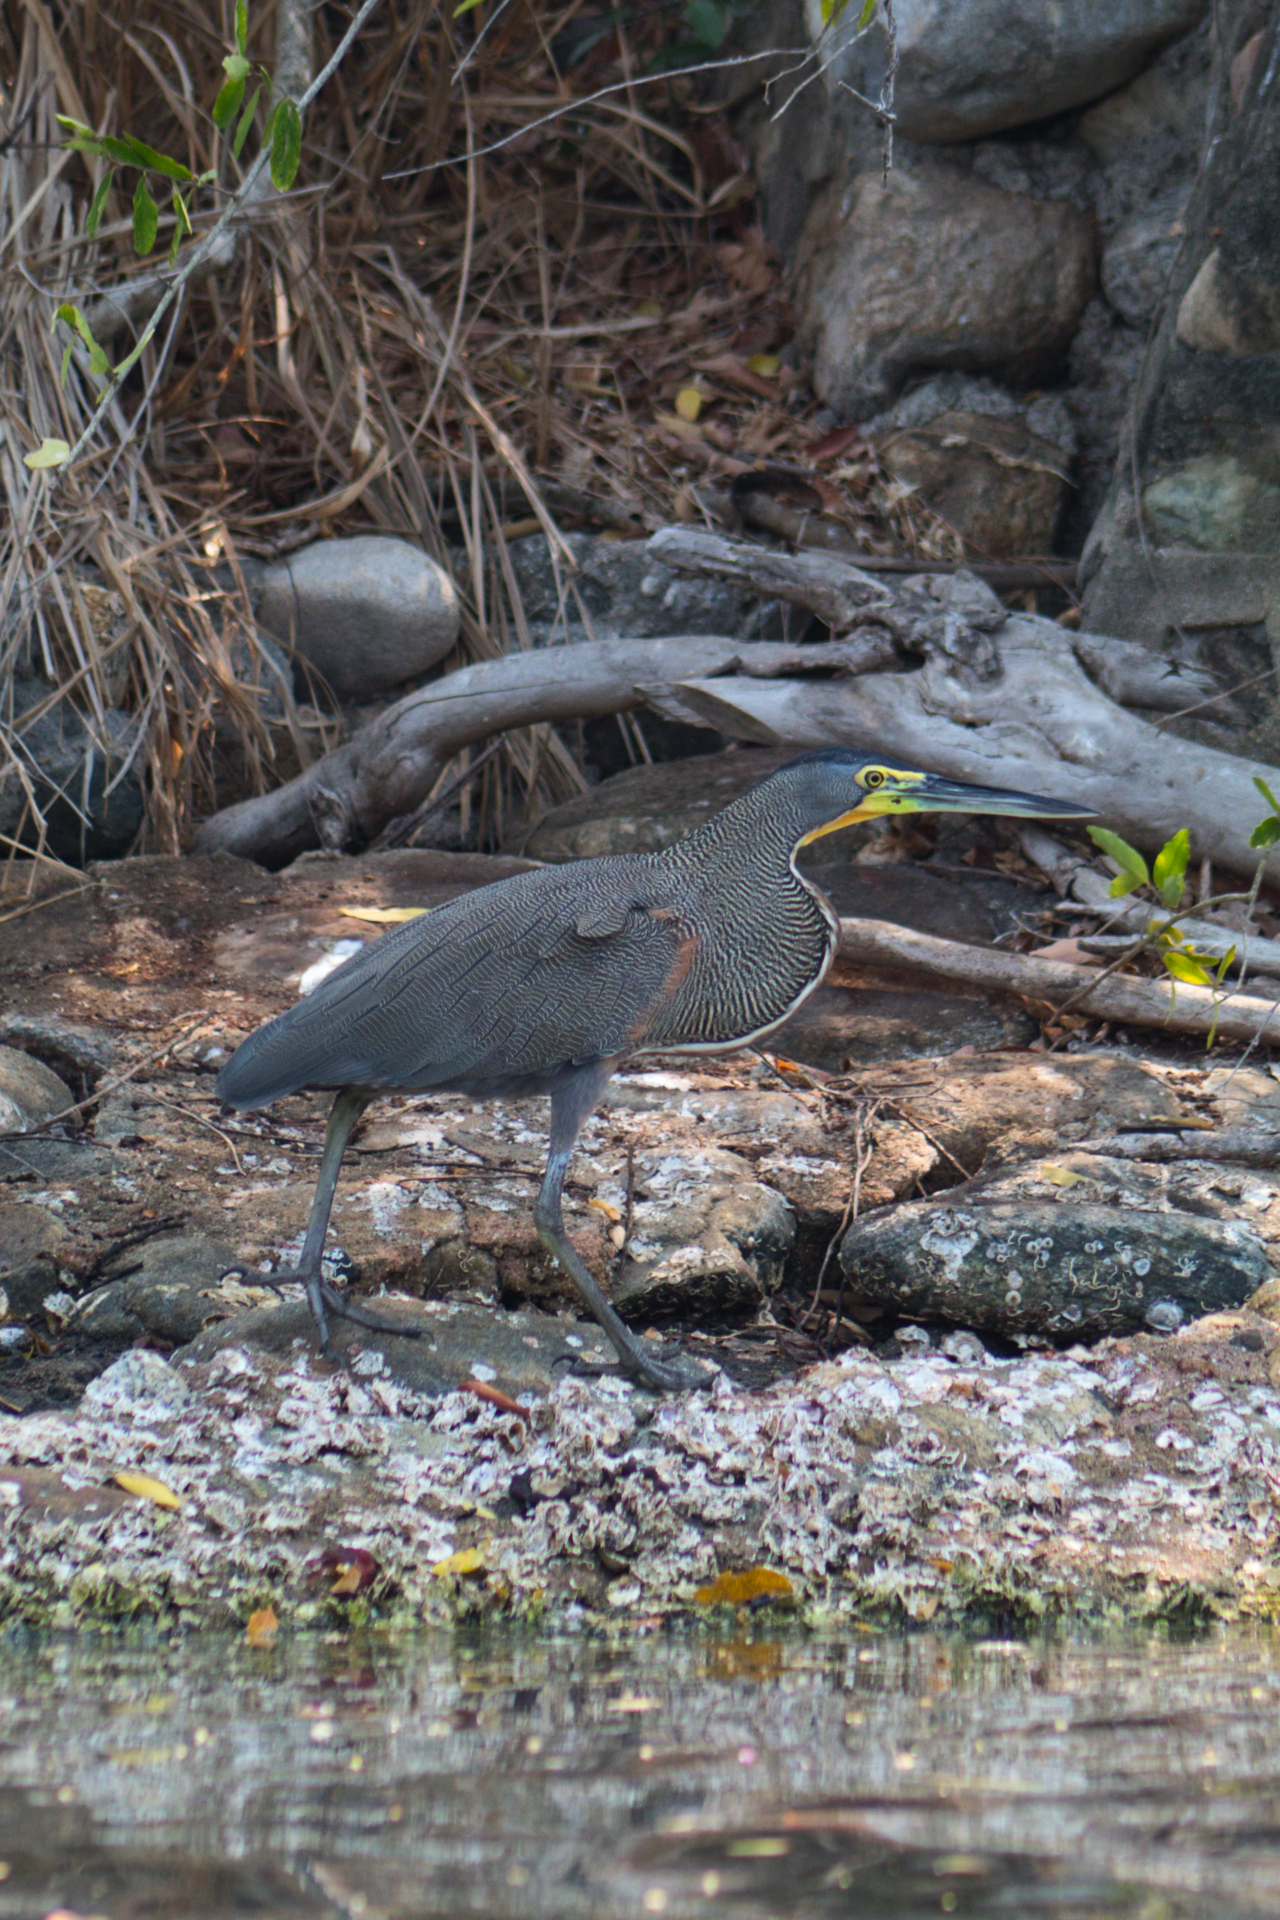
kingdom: Animalia
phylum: Chordata
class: Aves
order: Pelecaniformes
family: Ardeidae
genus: Tigrisoma
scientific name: Tigrisoma mexicanum
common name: Bare-throated tiger-heron
